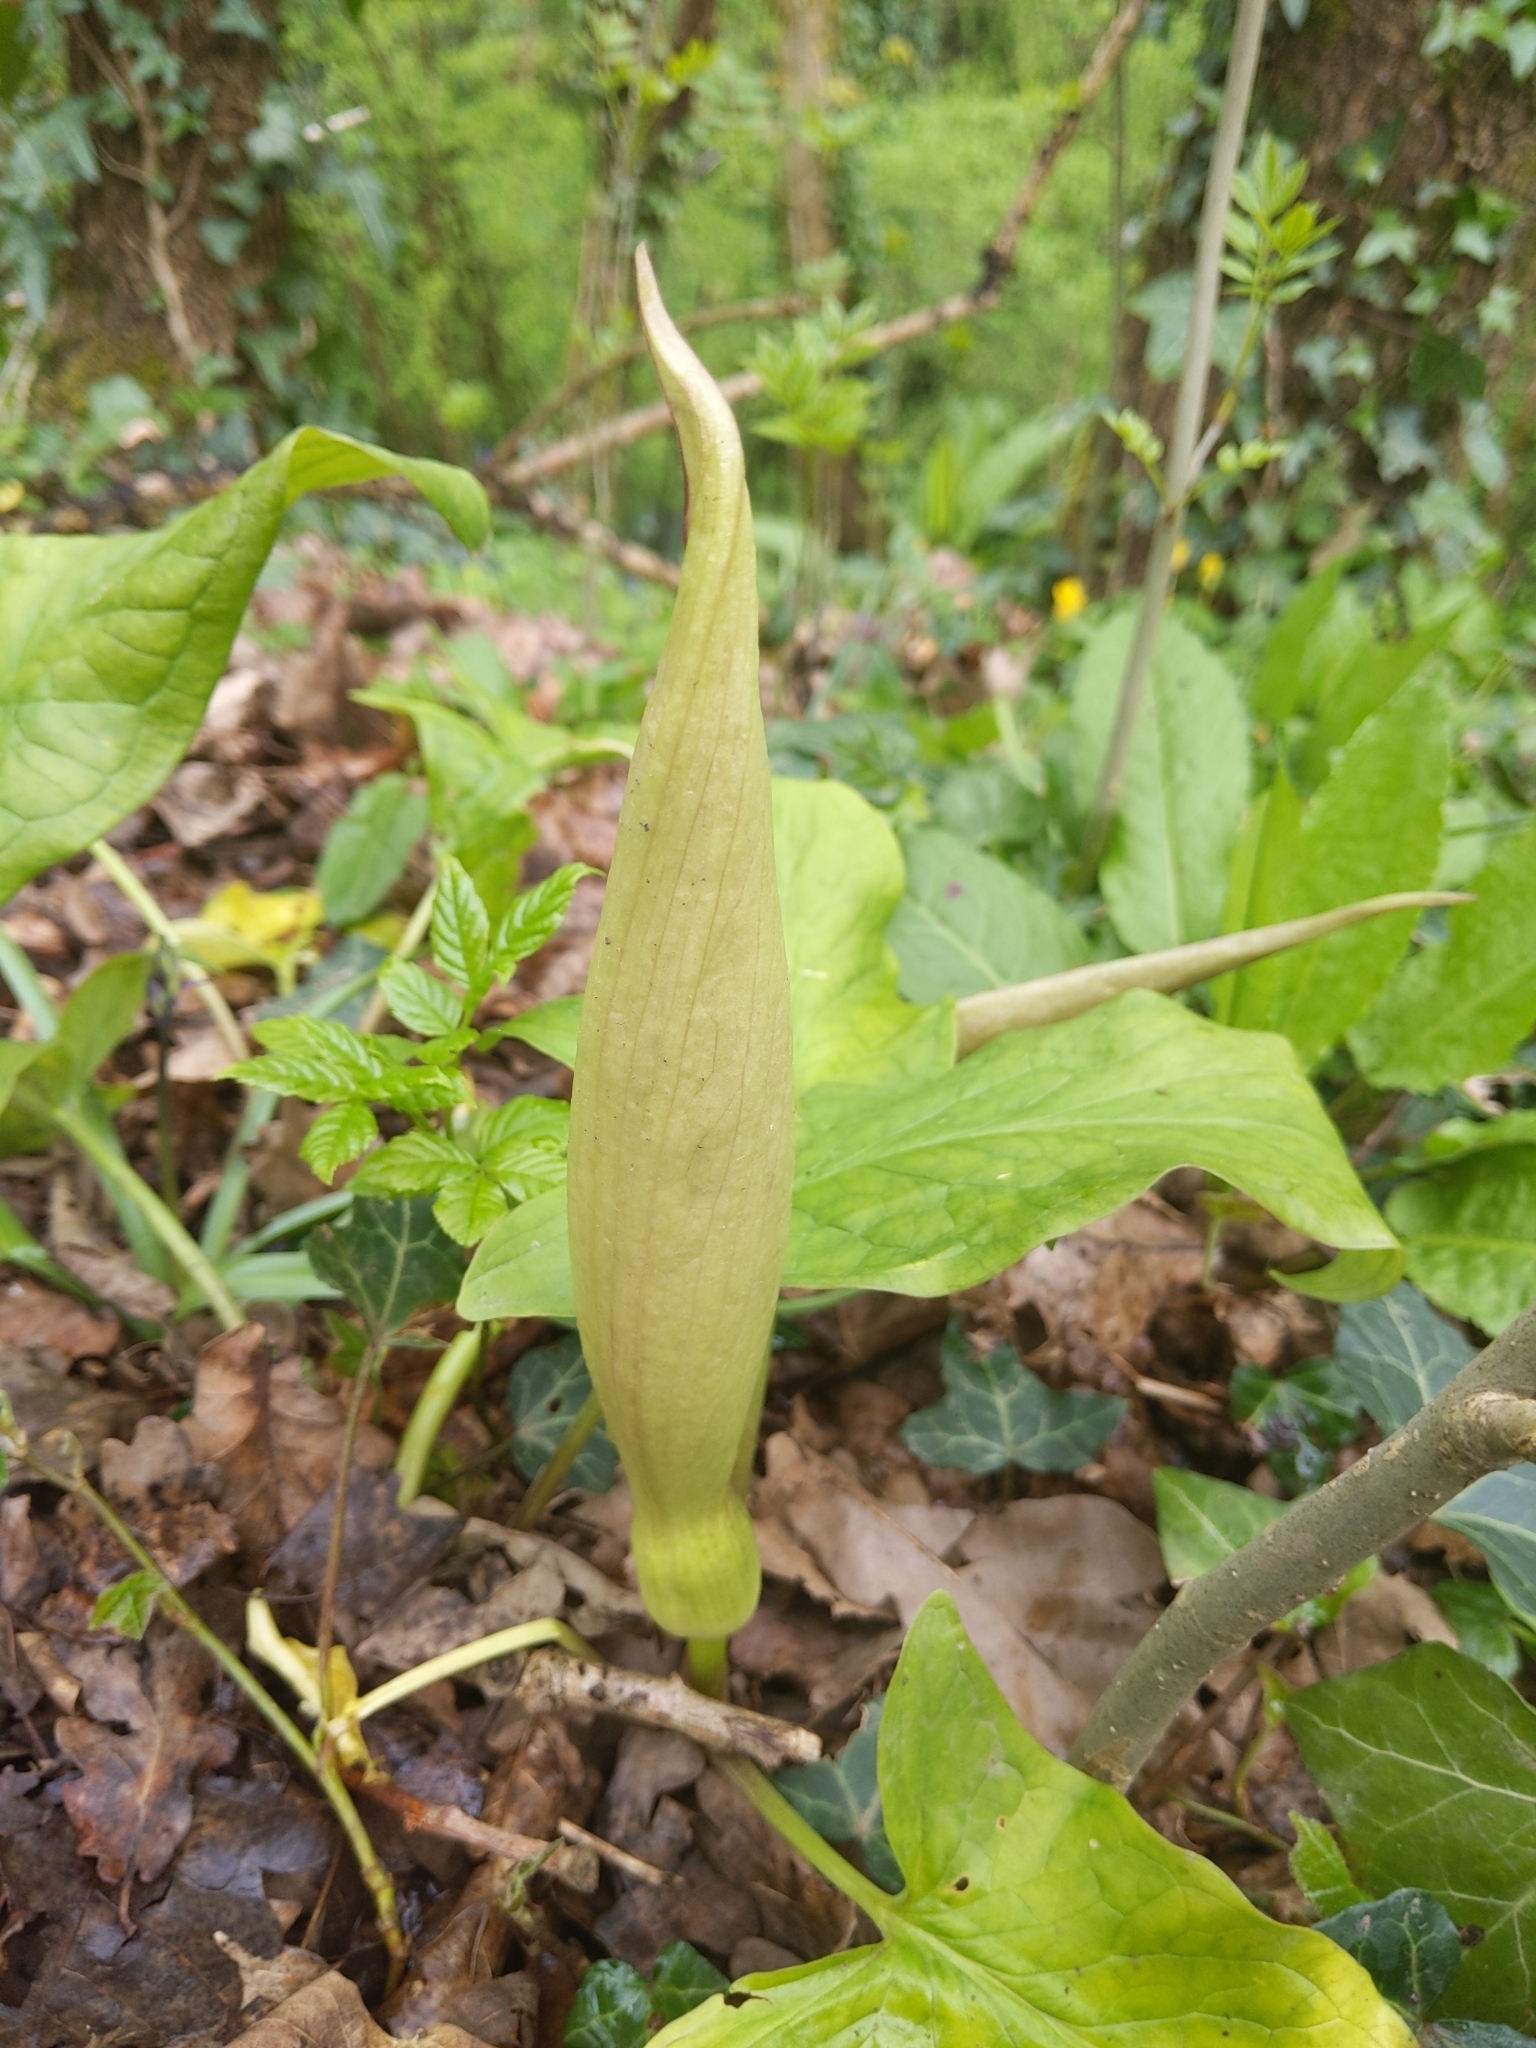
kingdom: Plantae
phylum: Tracheophyta
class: Liliopsida
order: Alismatales
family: Araceae
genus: Arum
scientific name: Arum maculatum
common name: Lords-and-ladies
